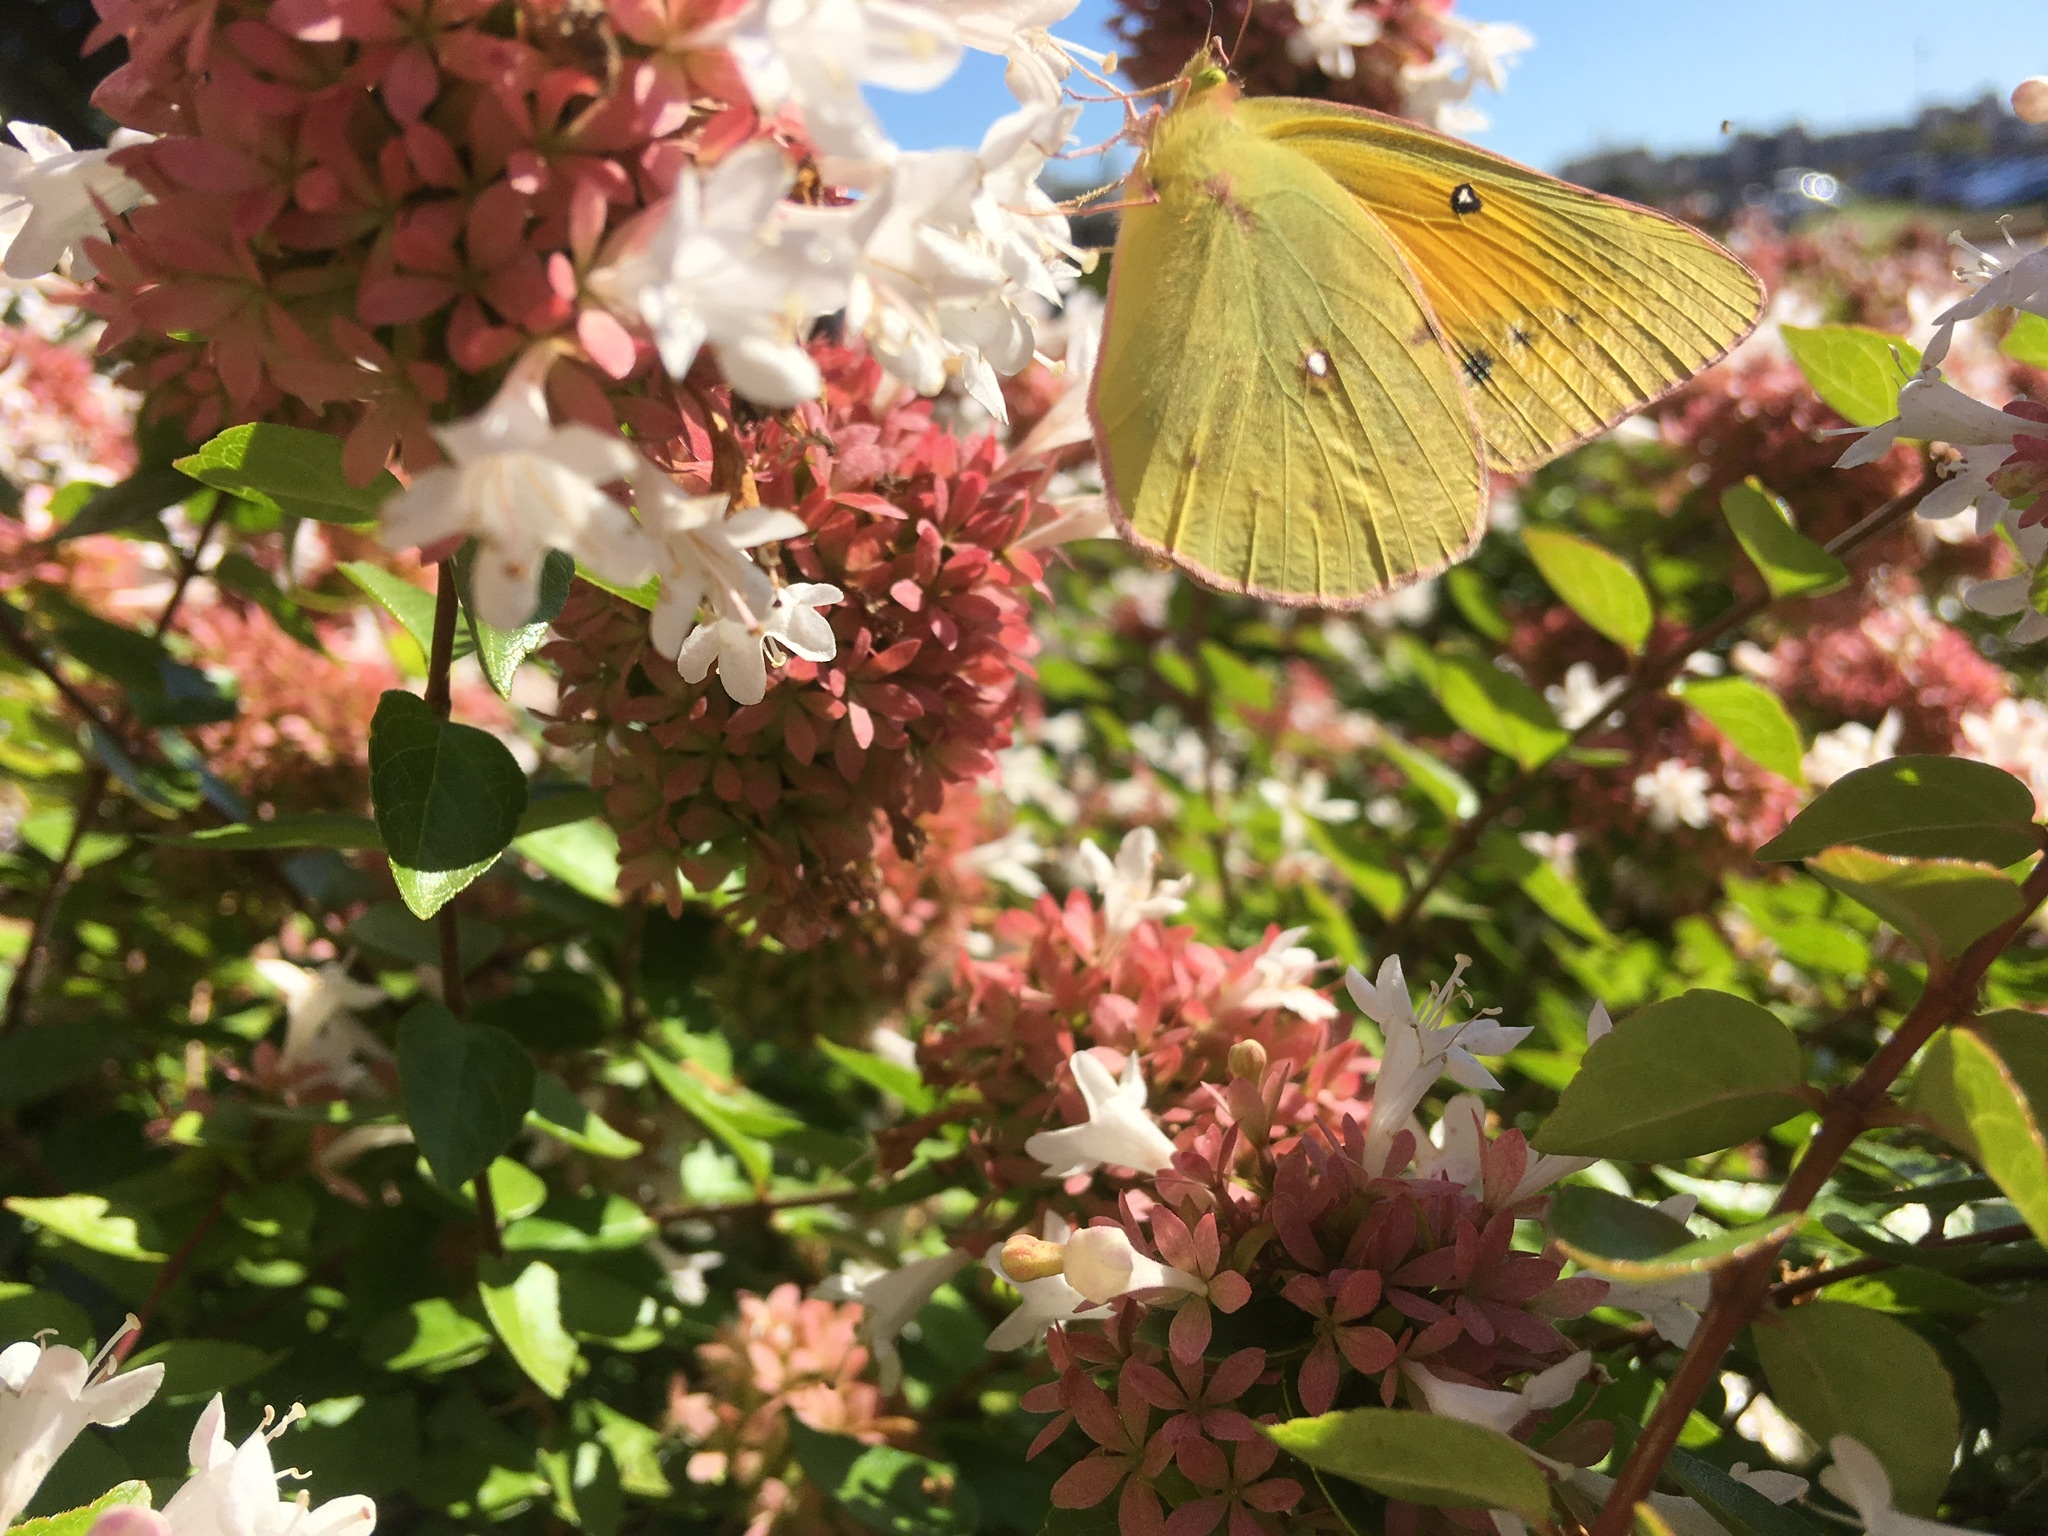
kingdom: Animalia
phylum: Arthropoda
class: Insecta
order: Lepidoptera
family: Pieridae
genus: Colias
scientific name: Colias eurytheme
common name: Alfalfa butterfly
